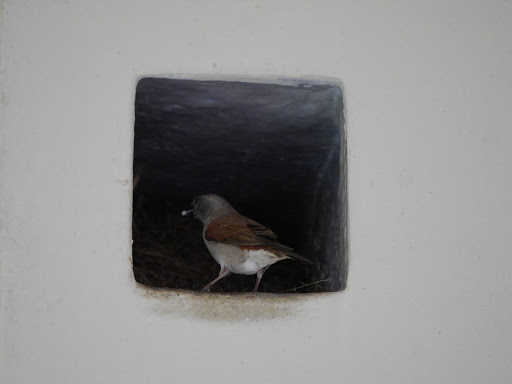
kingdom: Animalia
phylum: Chordata
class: Aves
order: Passeriformes
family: Passeridae
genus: Passer
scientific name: Passer griseus
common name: Northern grey-headed sparrow
